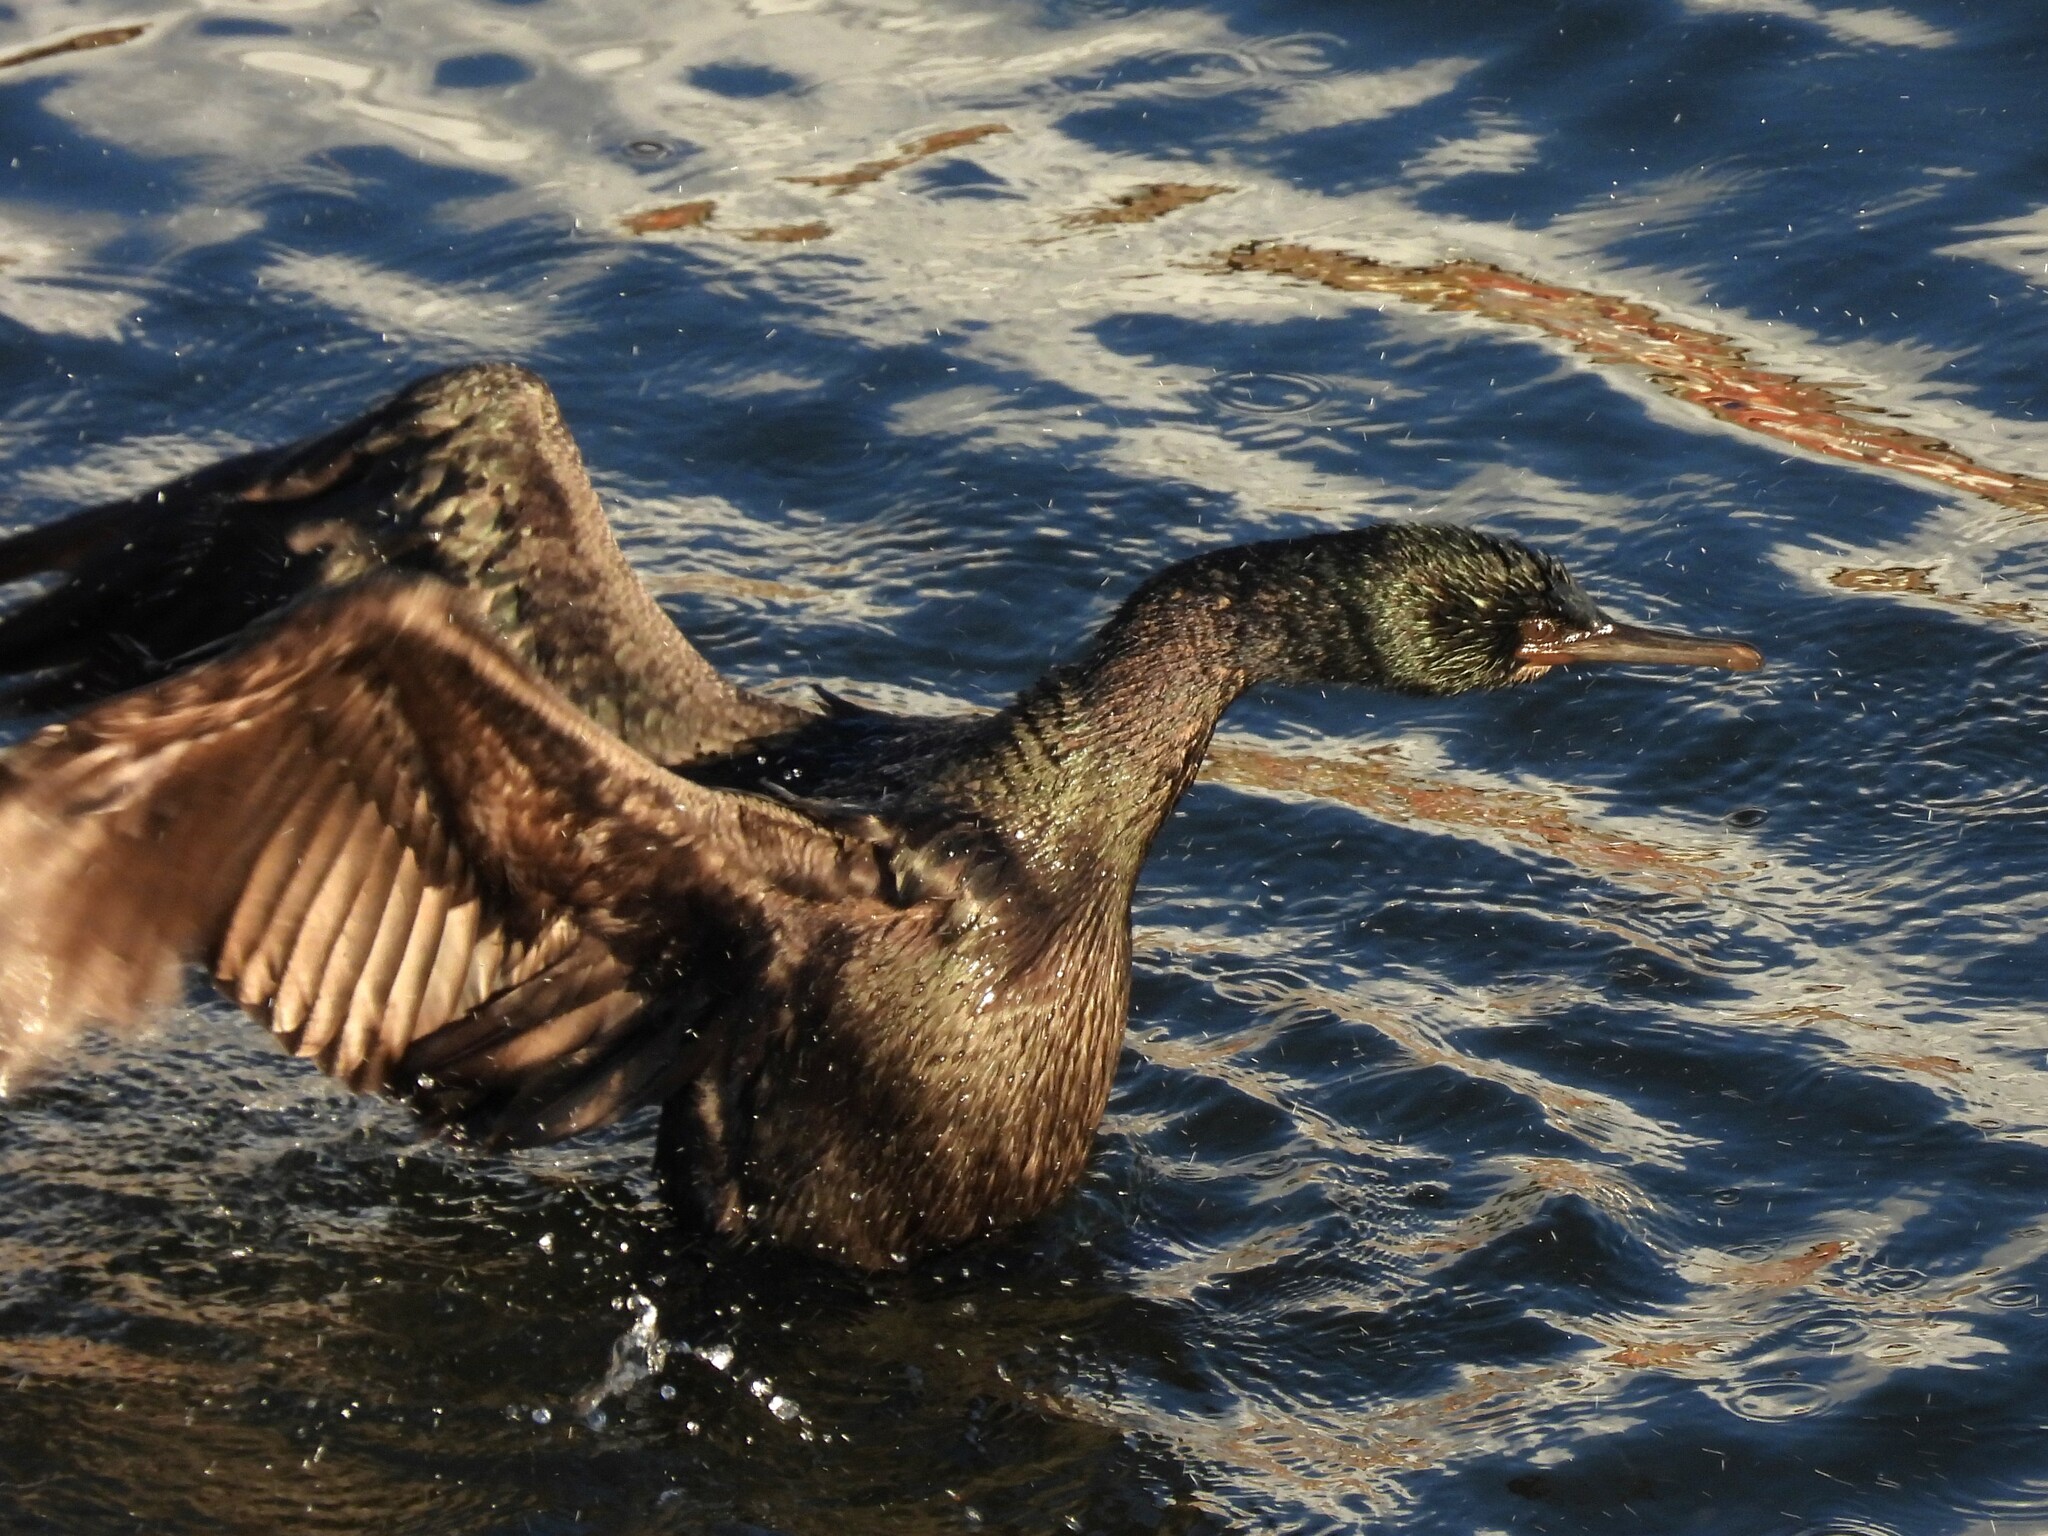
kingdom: Animalia
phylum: Chordata
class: Aves
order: Suliformes
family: Phalacrocoracidae
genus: Phalacrocorax
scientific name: Phalacrocorax pelagicus
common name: Pelagic cormorant
